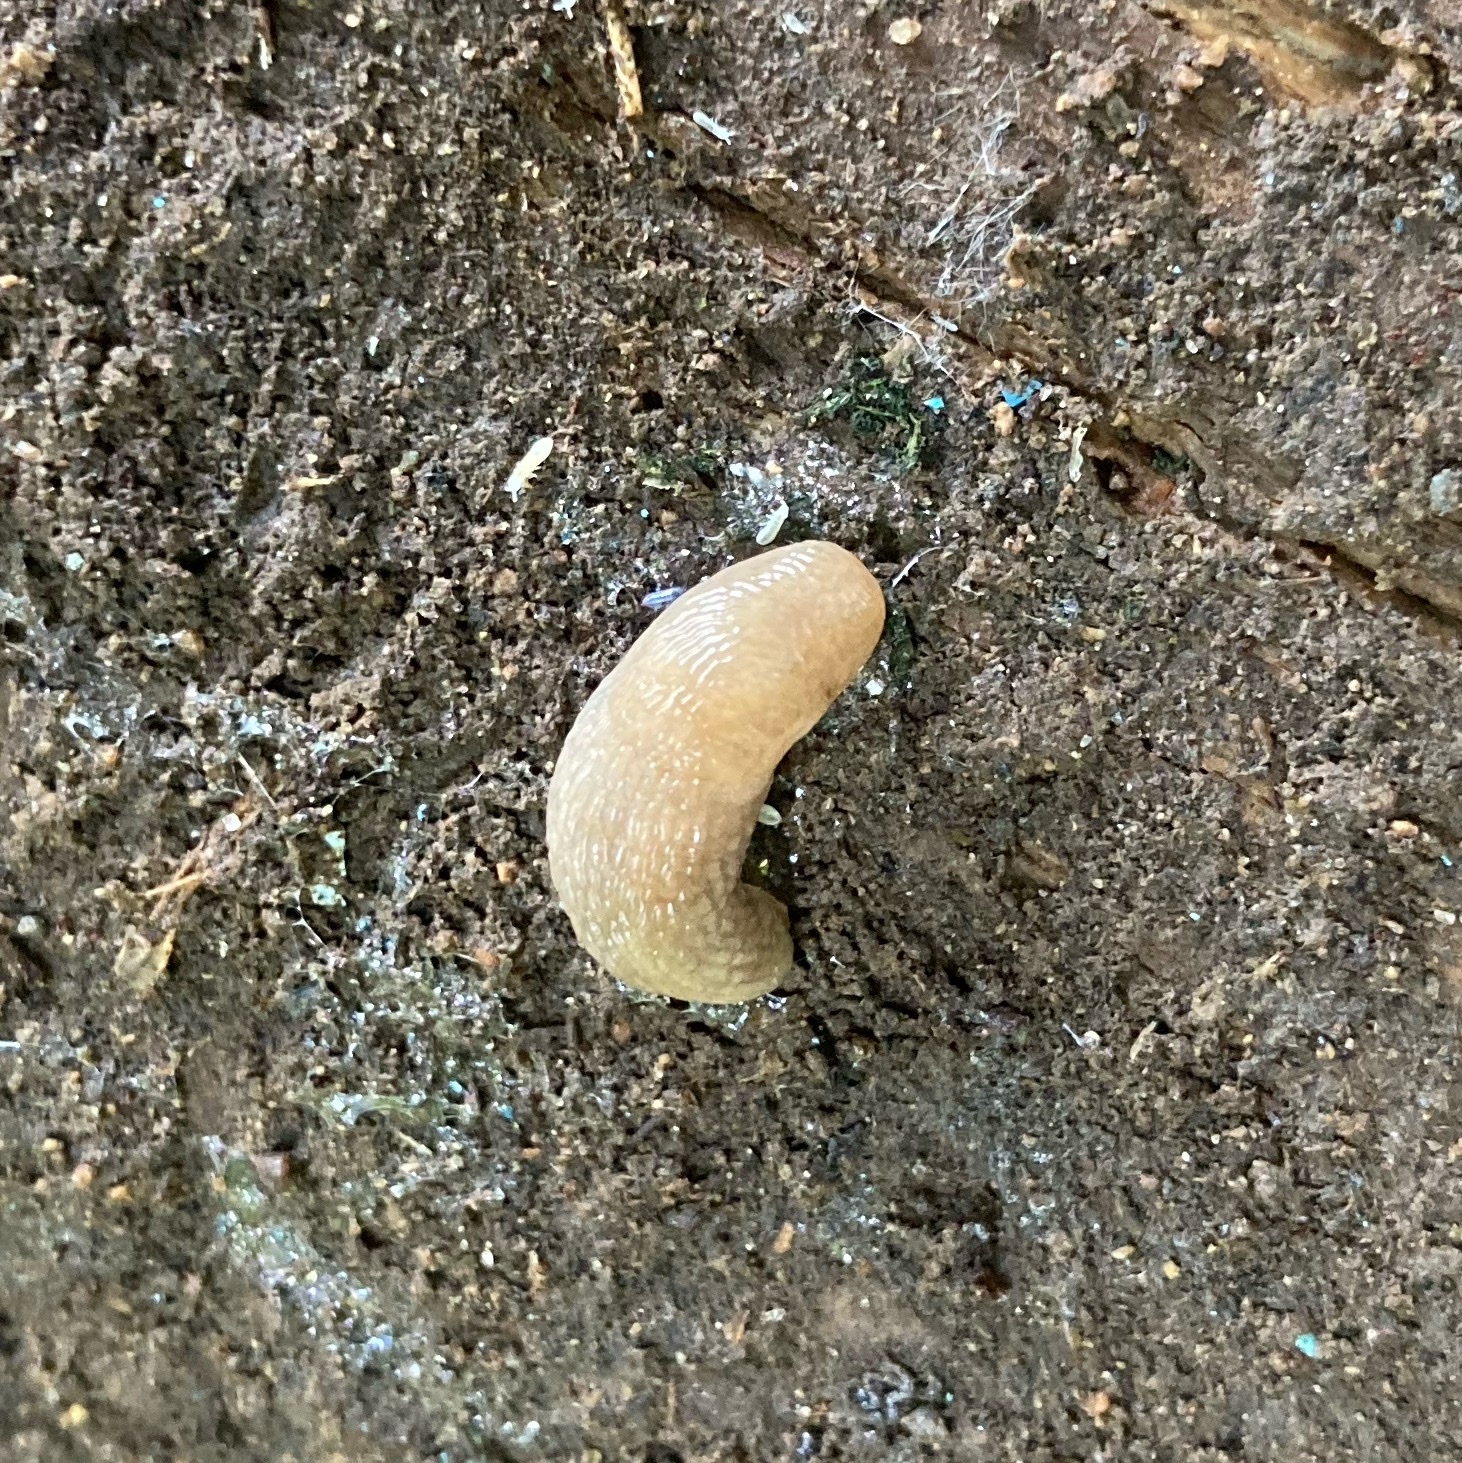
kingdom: Animalia
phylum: Mollusca
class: Gastropoda
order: Stylommatophora
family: Agriolimacidae
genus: Deroceras
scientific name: Deroceras reticulatum
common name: Gray field slug
